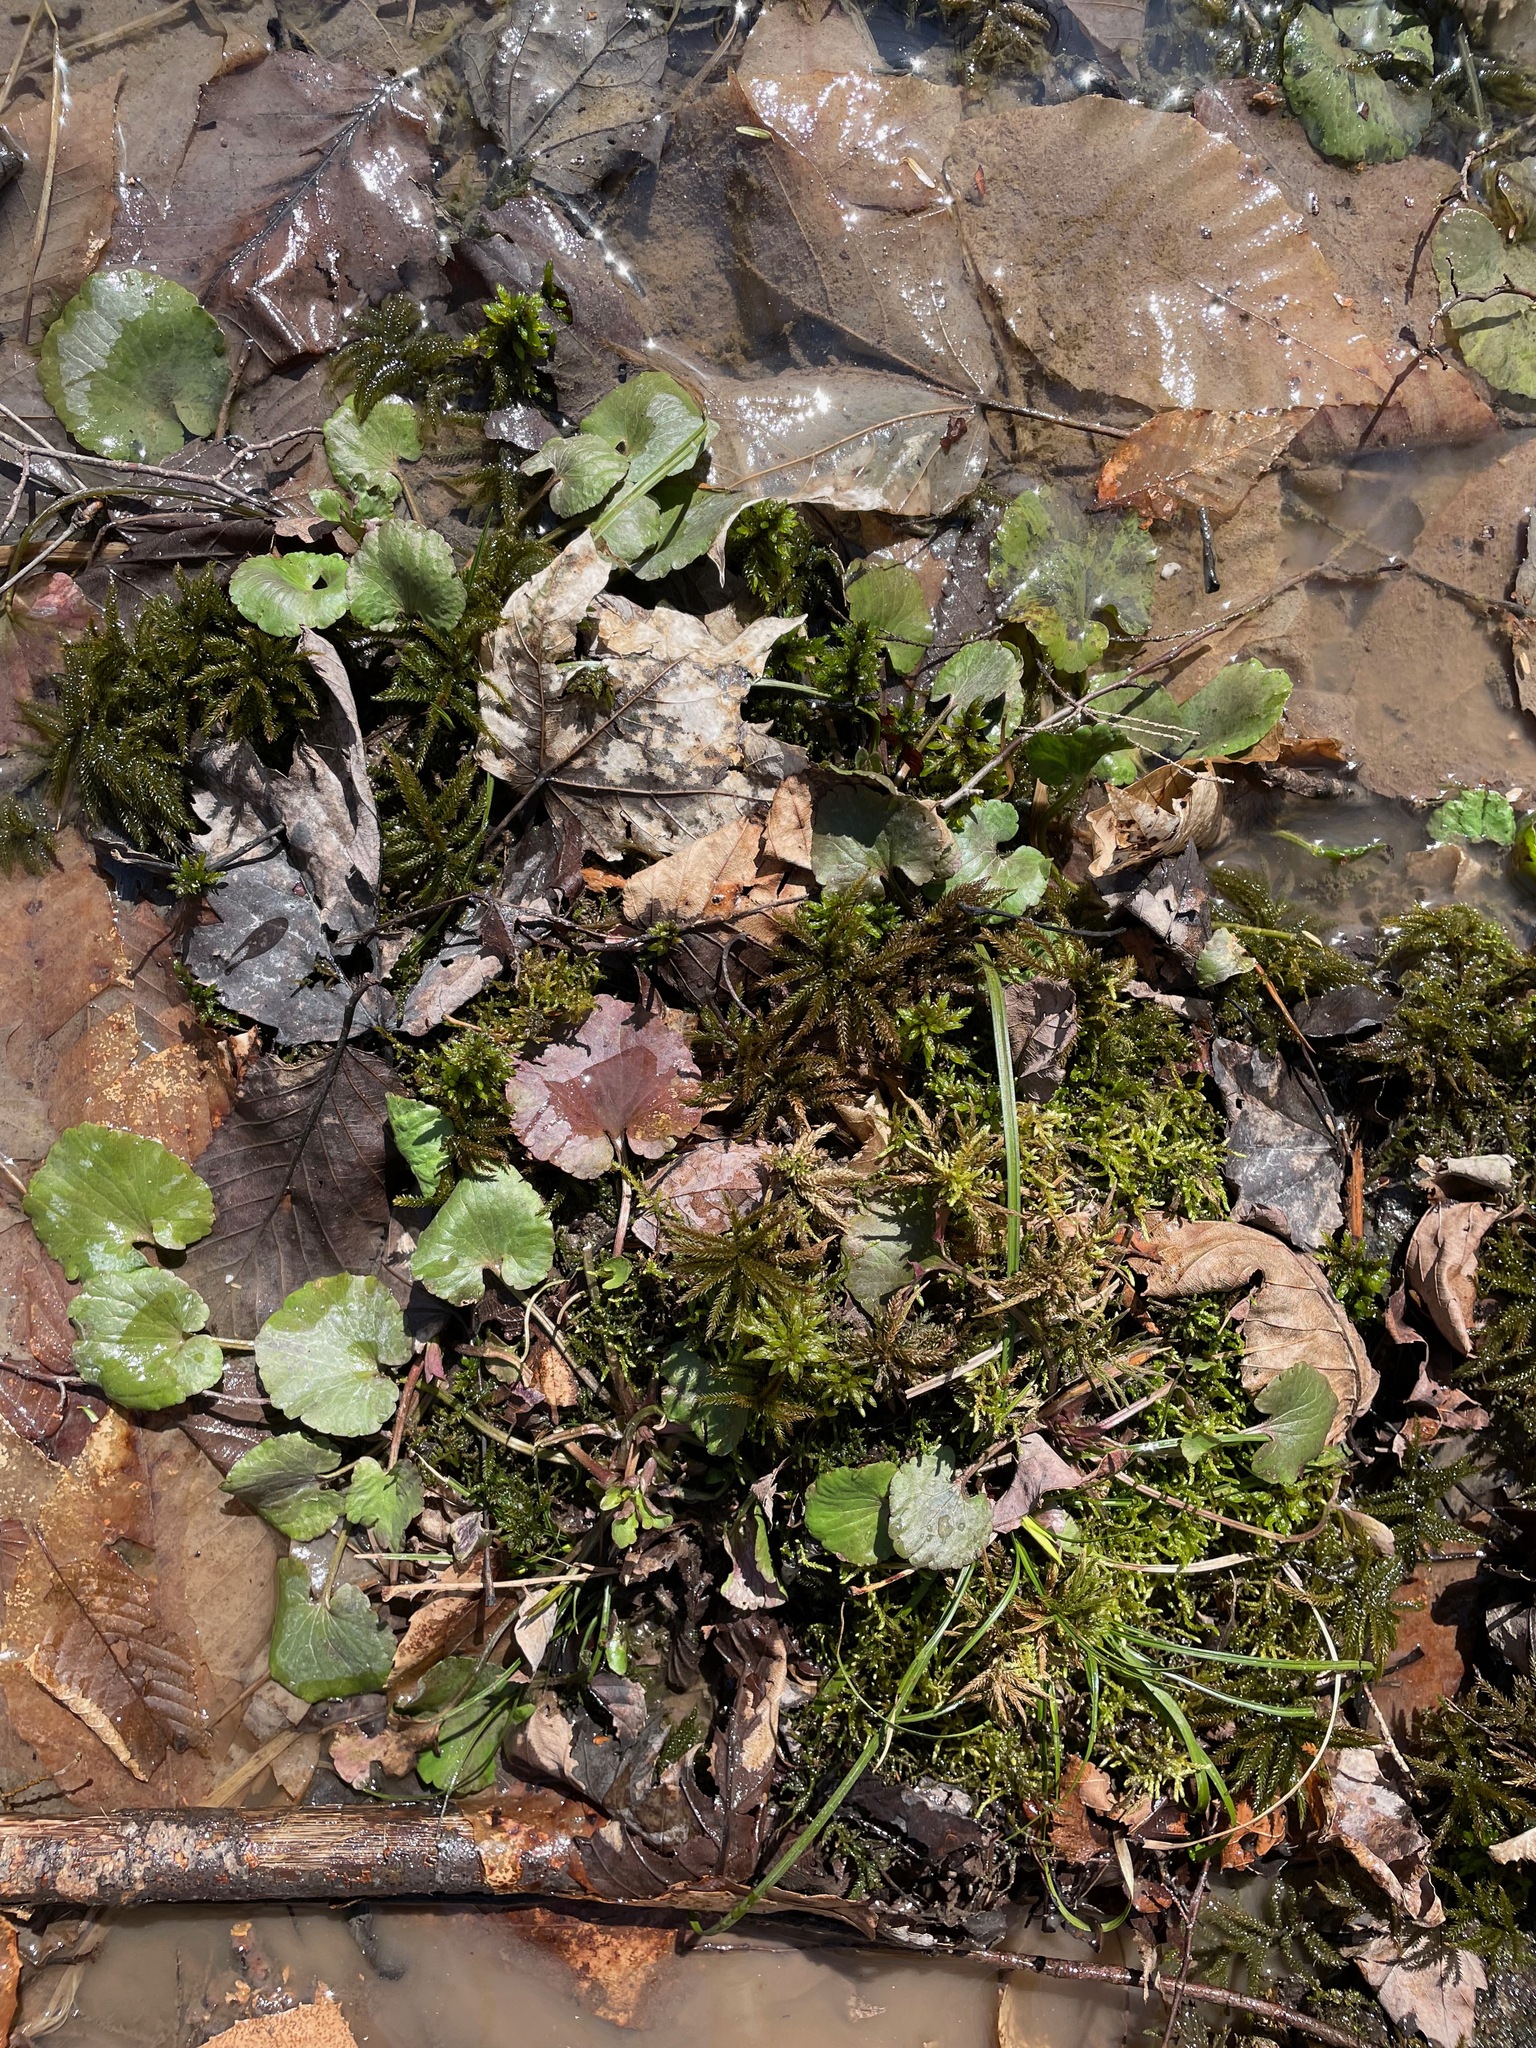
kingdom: Plantae
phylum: Tracheophyta
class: Magnoliopsida
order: Ranunculales
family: Ranunculaceae
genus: Ranunculus
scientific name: Ranunculus abortivus
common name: Early wood buttercup
